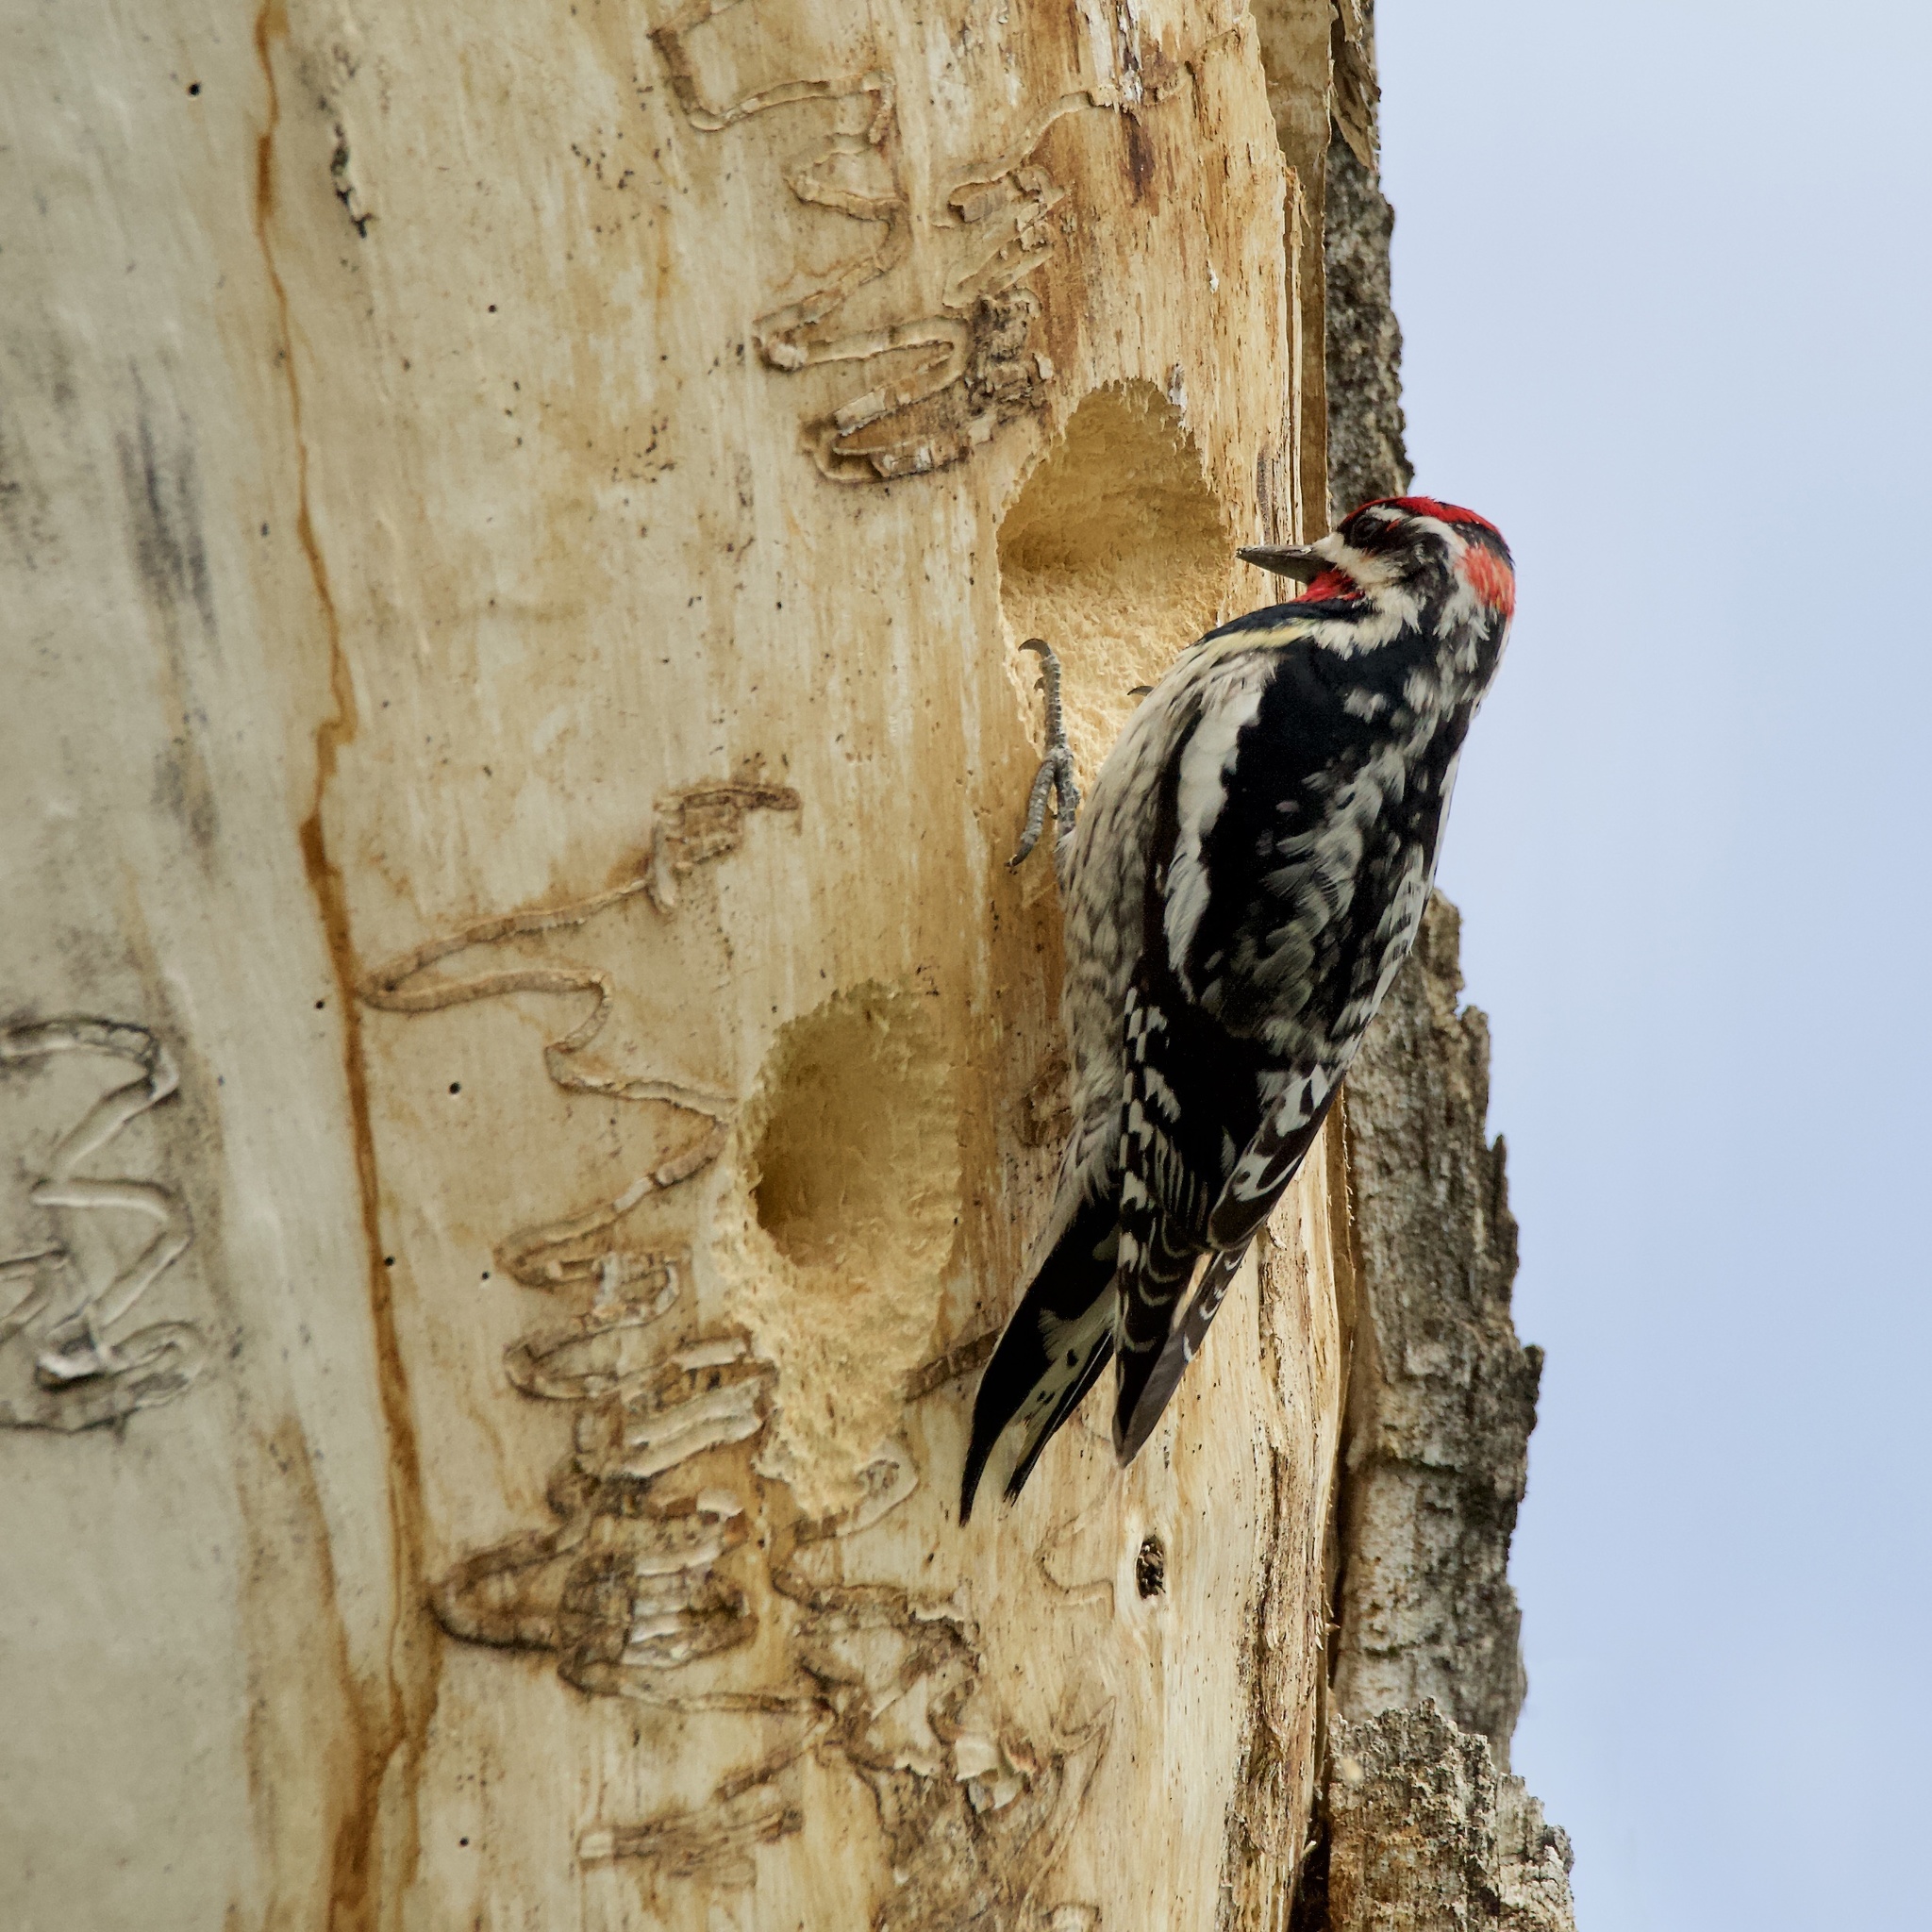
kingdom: Animalia
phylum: Chordata
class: Aves
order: Piciformes
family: Picidae
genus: Sphyrapicus
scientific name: Sphyrapicus nuchalis
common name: Red-naped sapsucker
